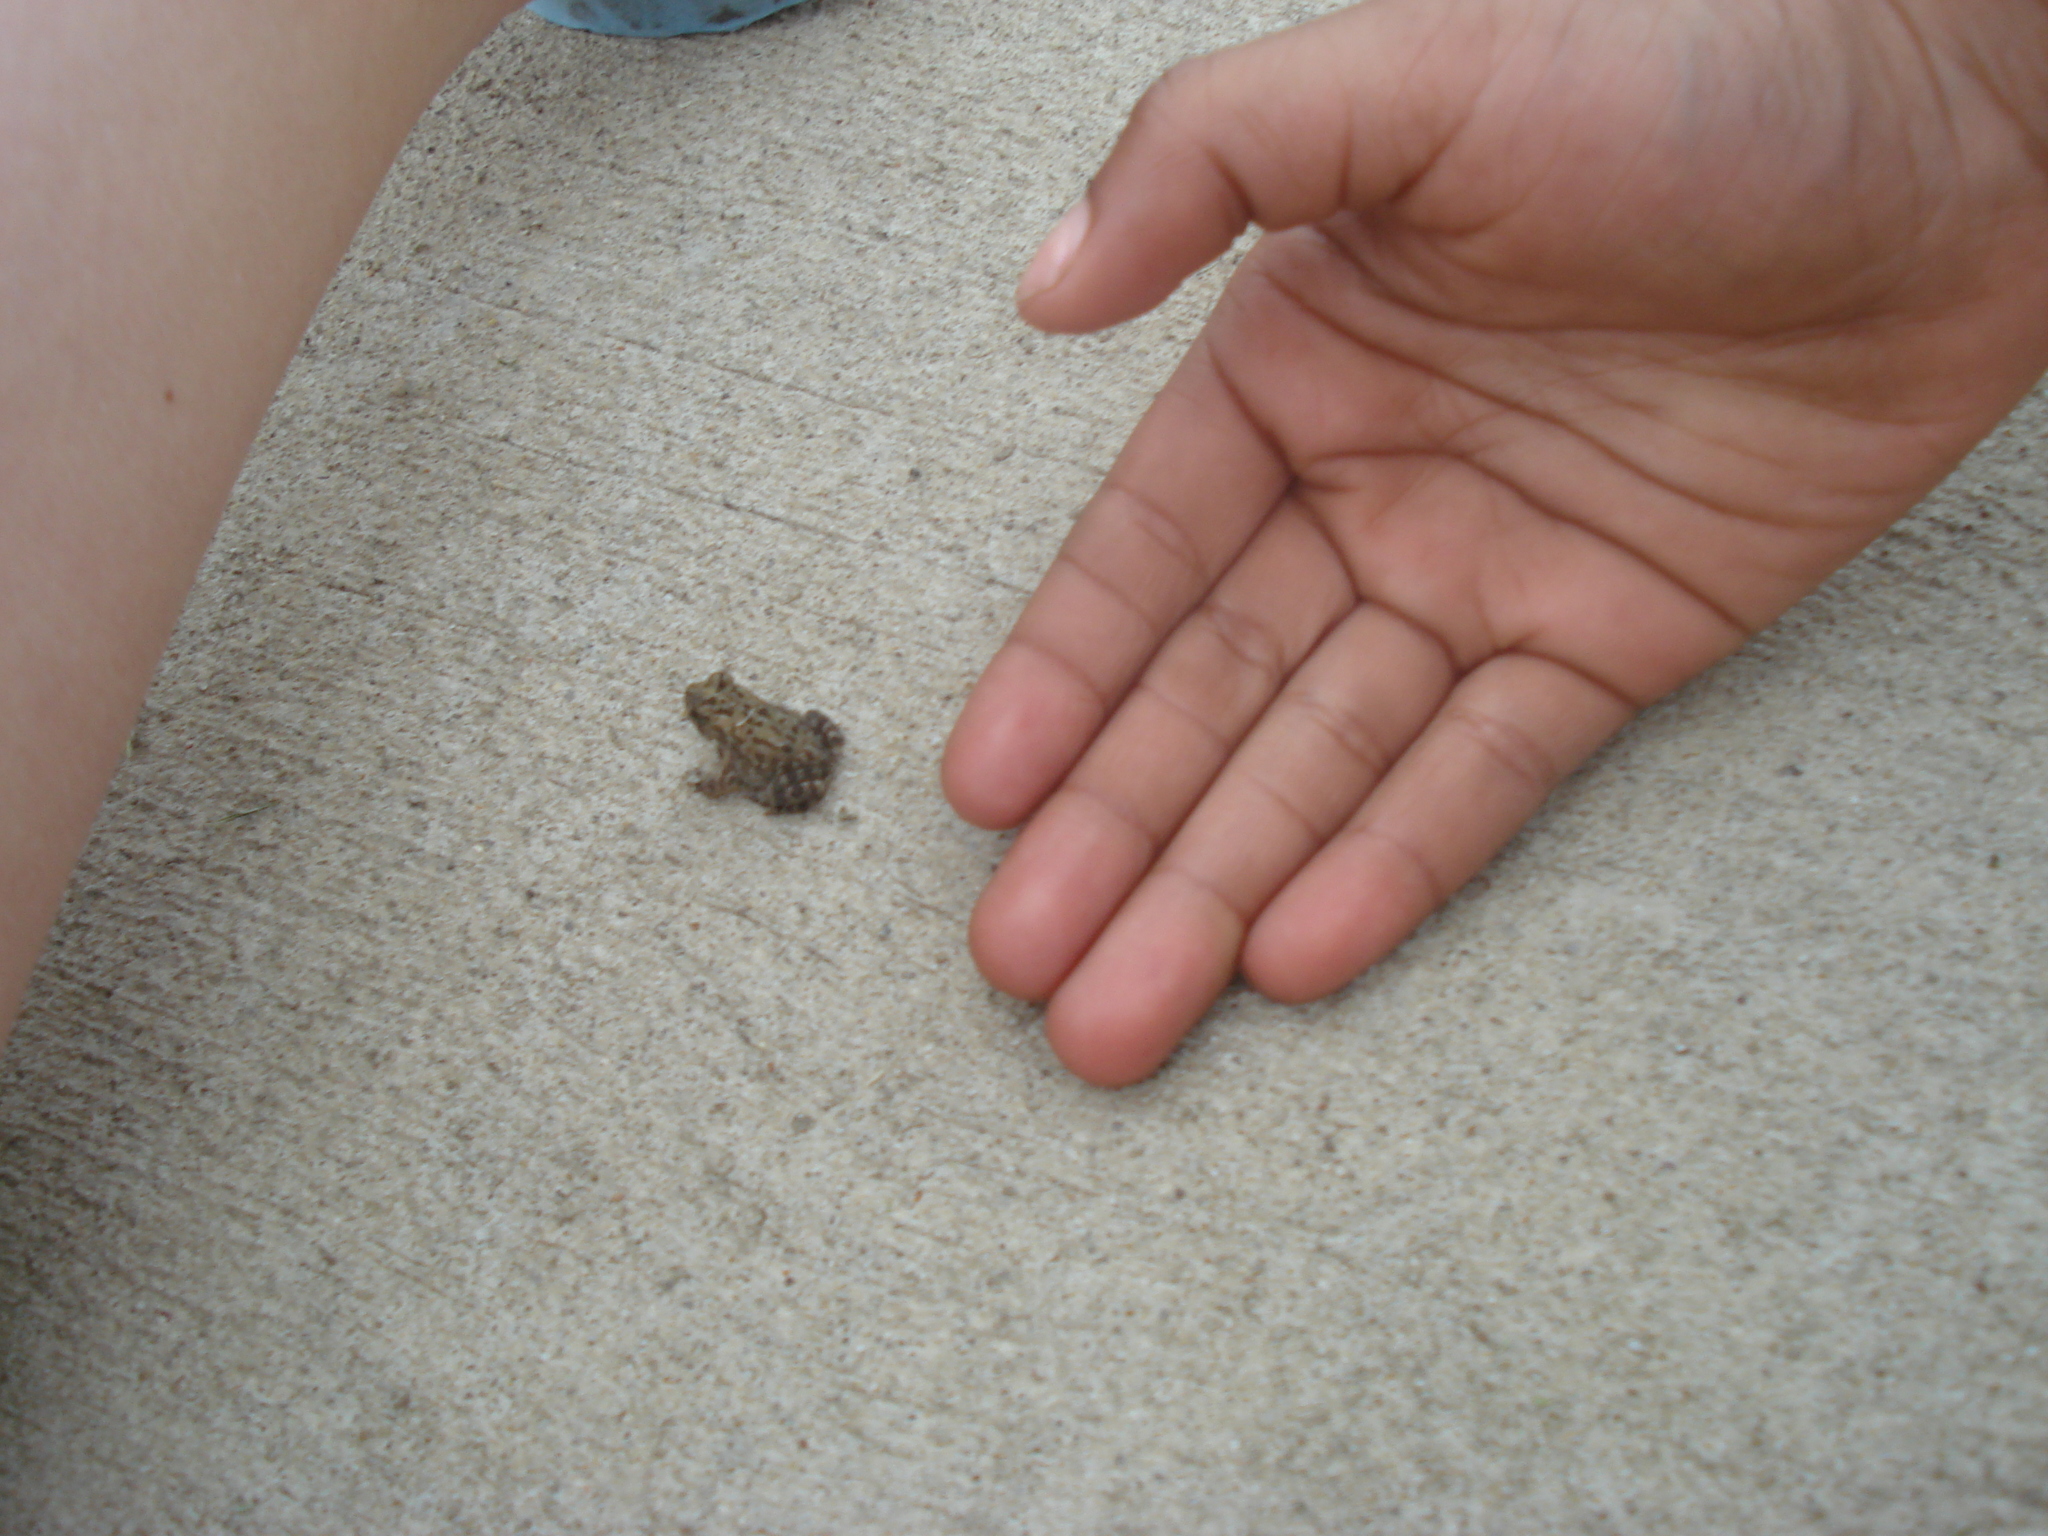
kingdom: Animalia
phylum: Chordata
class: Amphibia
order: Anura
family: Bufonidae
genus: Anaxyrus
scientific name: Anaxyrus americanus
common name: American toad
